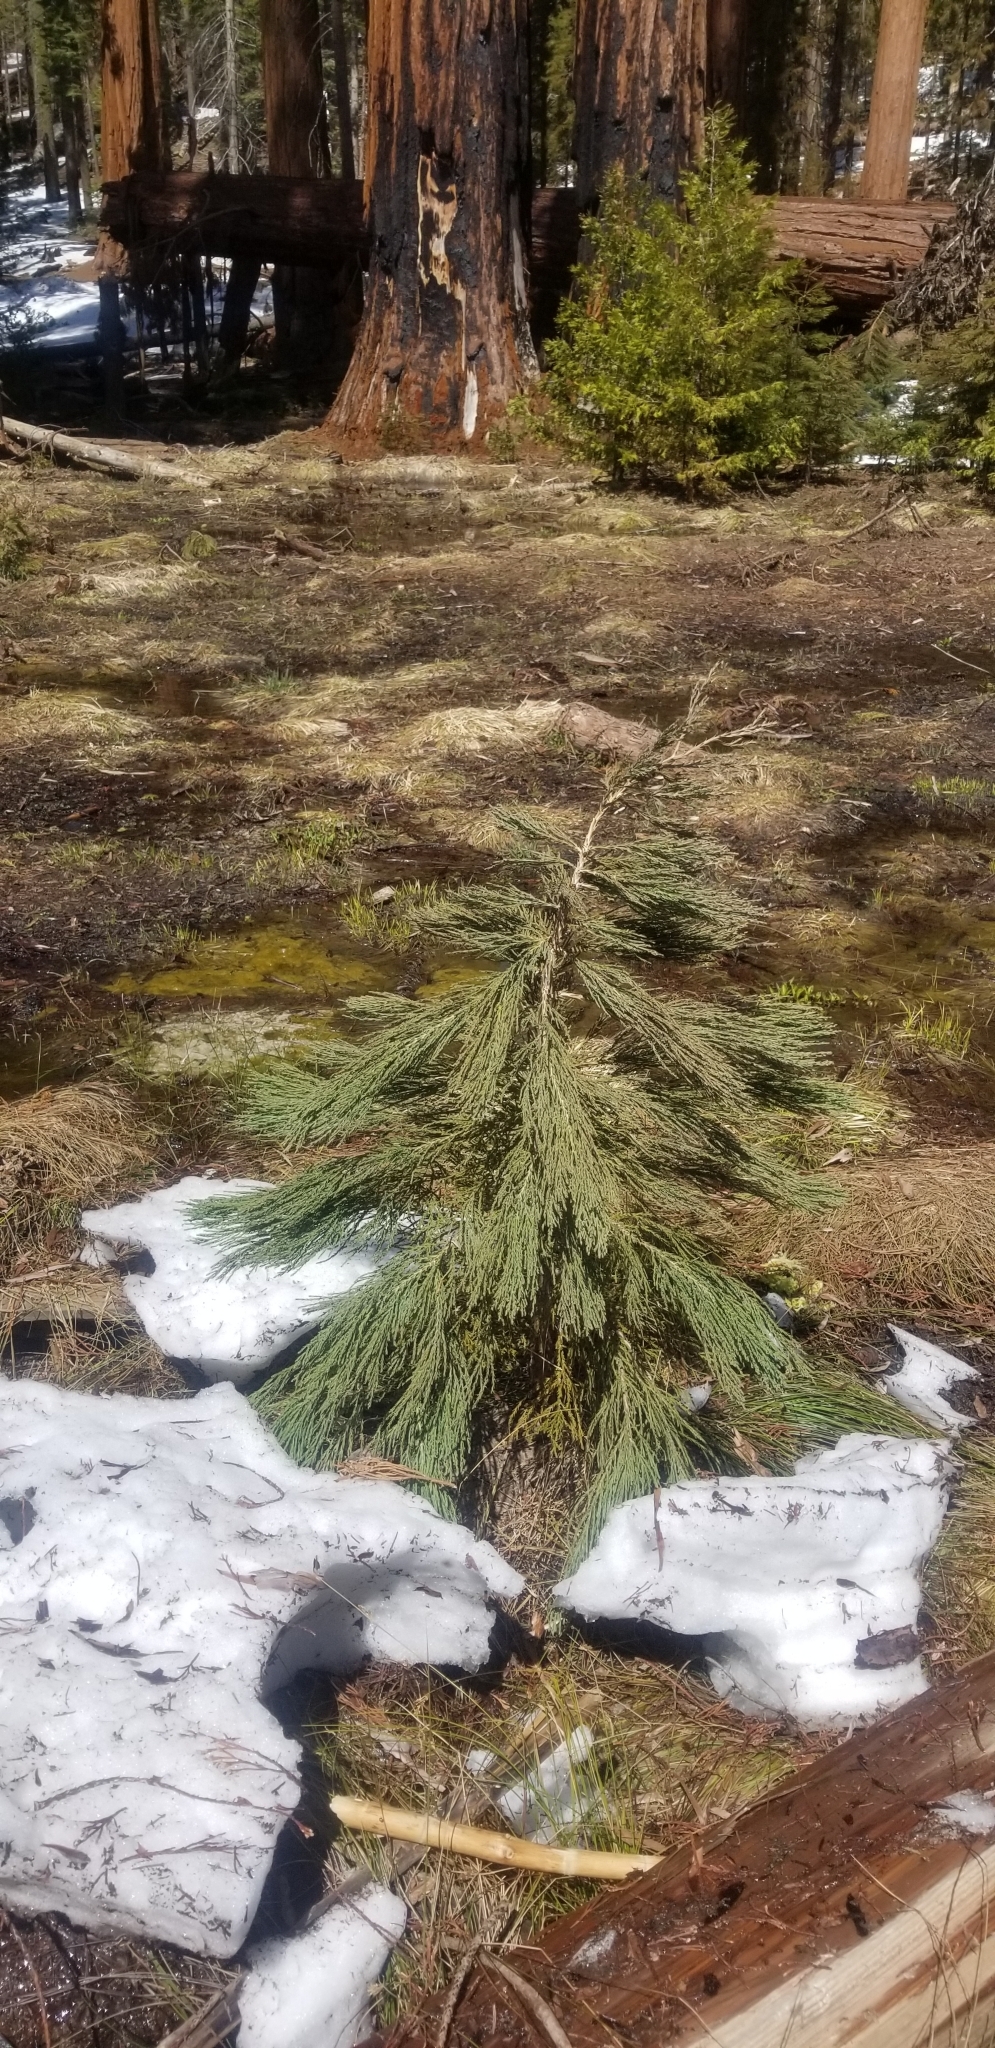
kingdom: Plantae
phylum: Tracheophyta
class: Pinopsida
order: Pinales
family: Cupressaceae
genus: Sequoiadendron
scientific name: Sequoiadendron giganteum
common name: Wellingtonia
